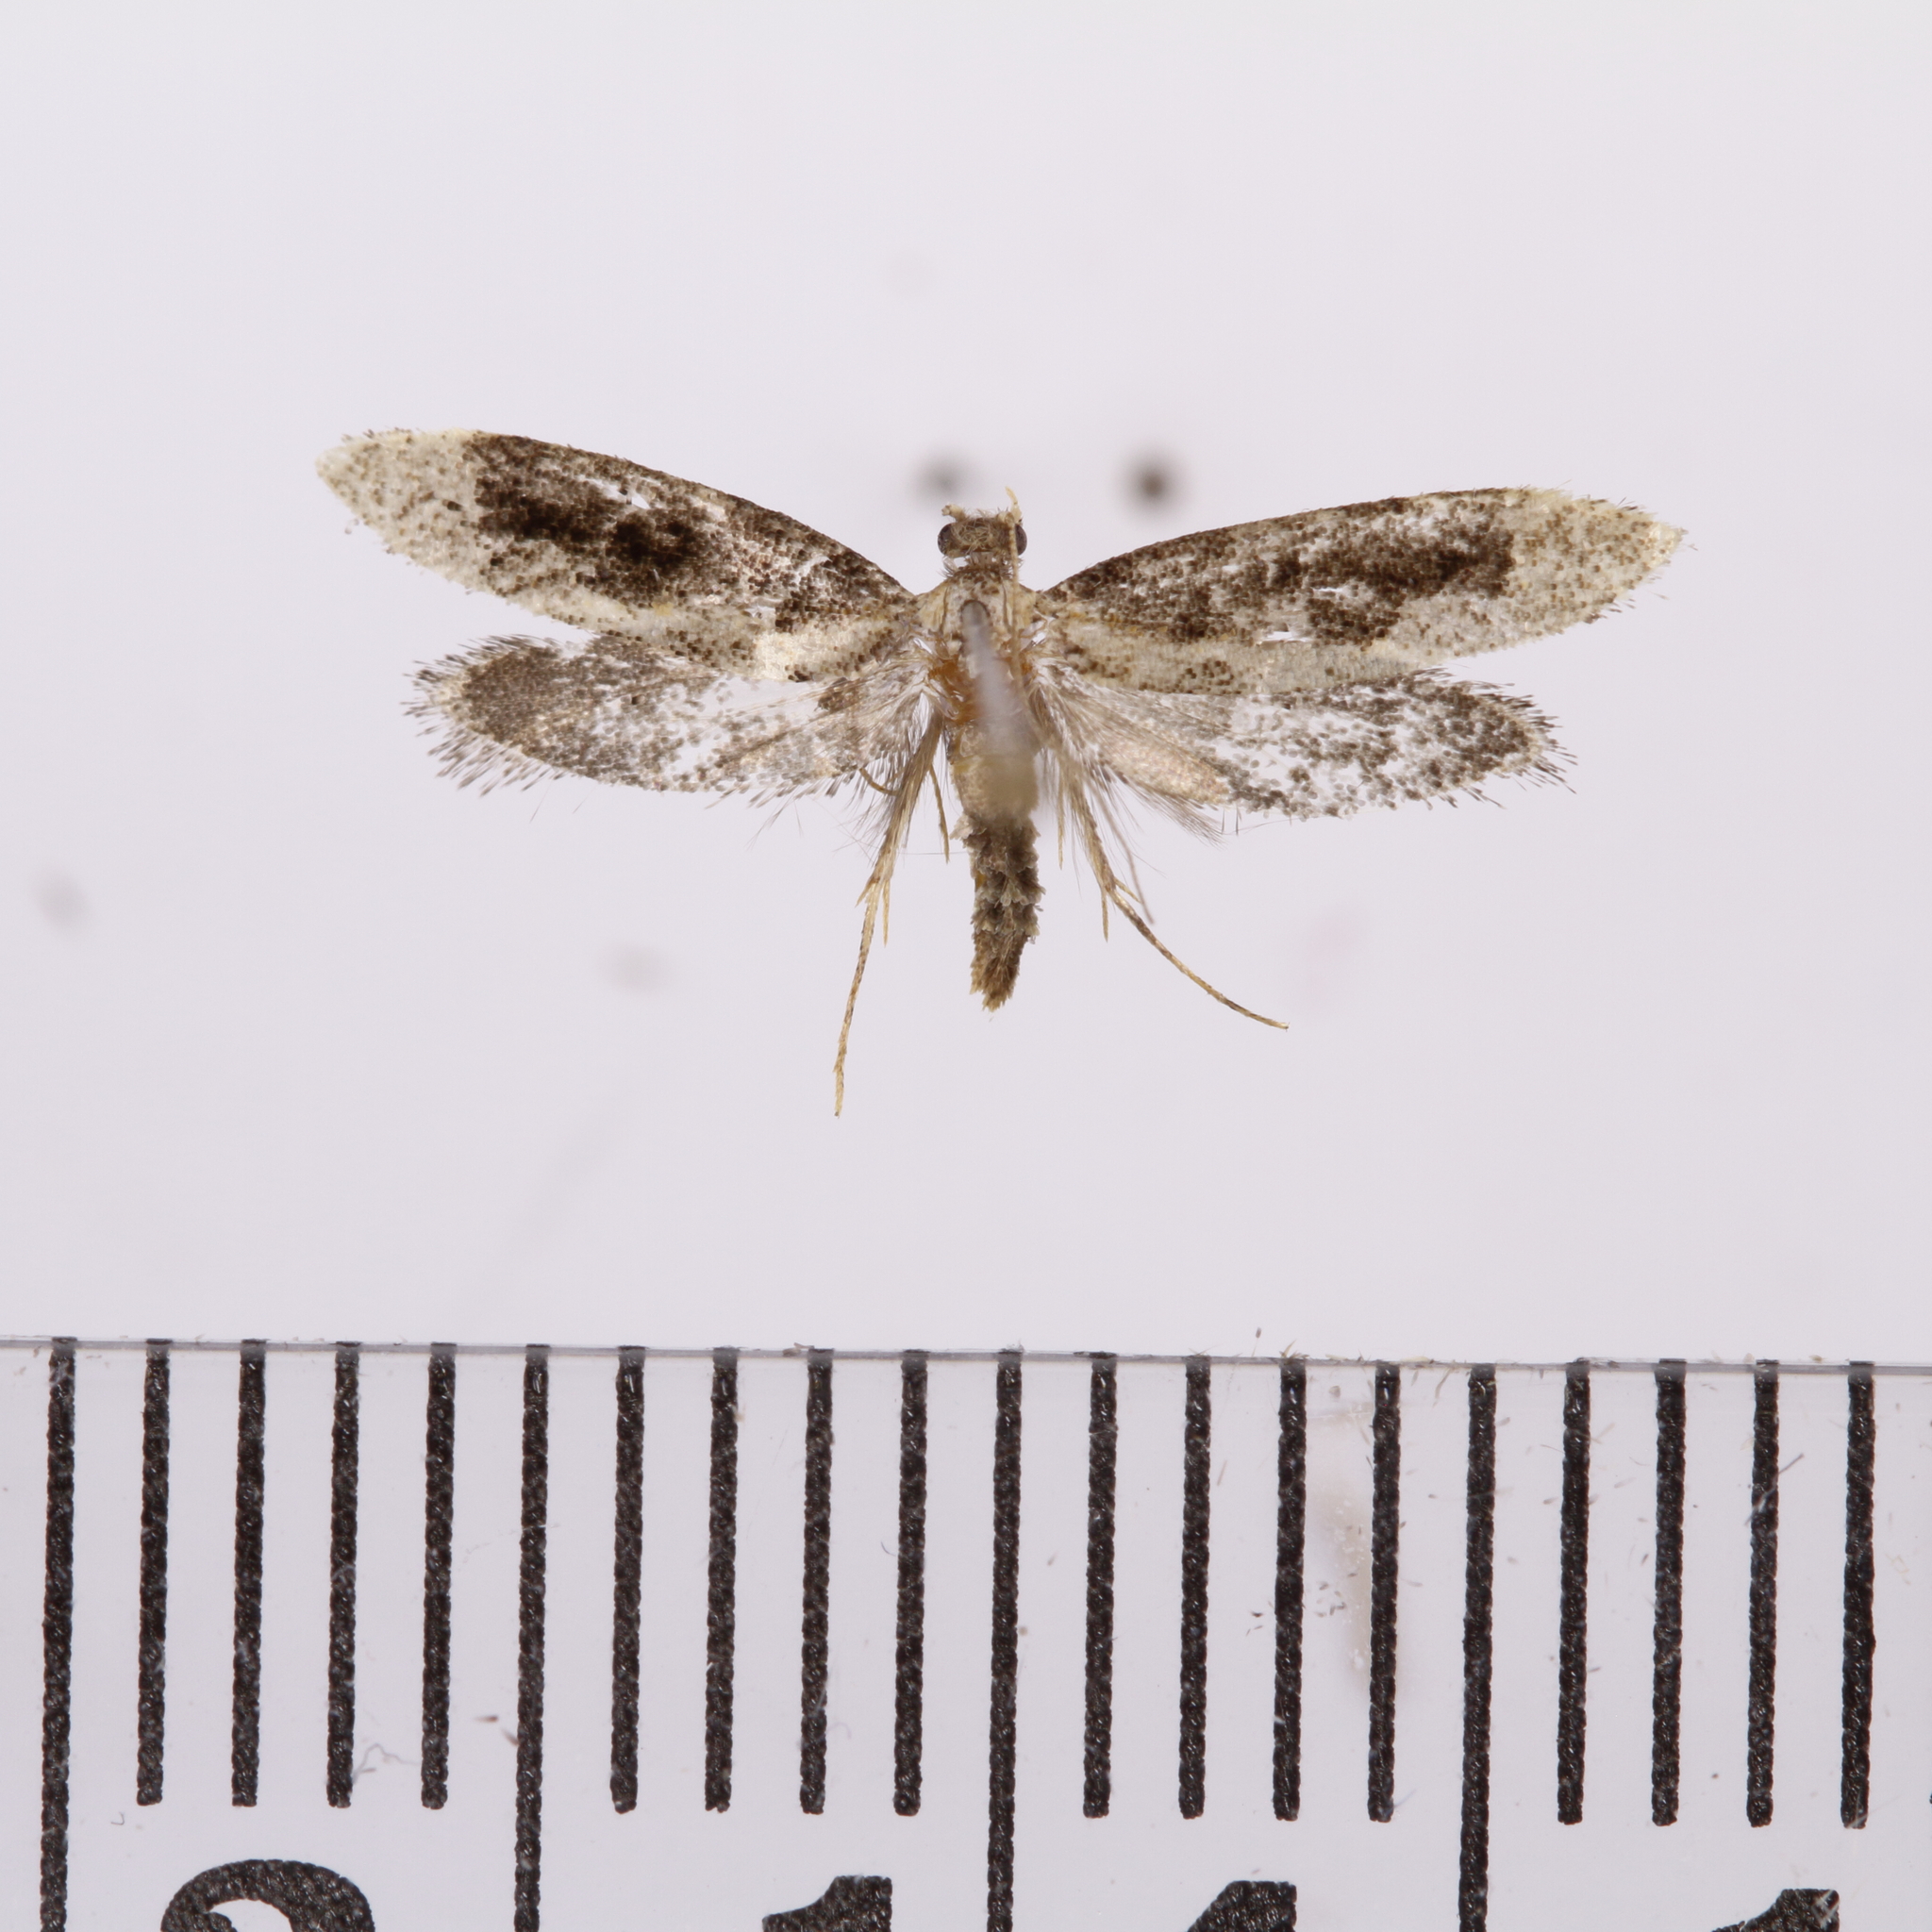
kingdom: Animalia
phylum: Arthropoda
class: Insecta
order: Lepidoptera
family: Tineidae
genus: Trithamnora
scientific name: Trithamnora certella
